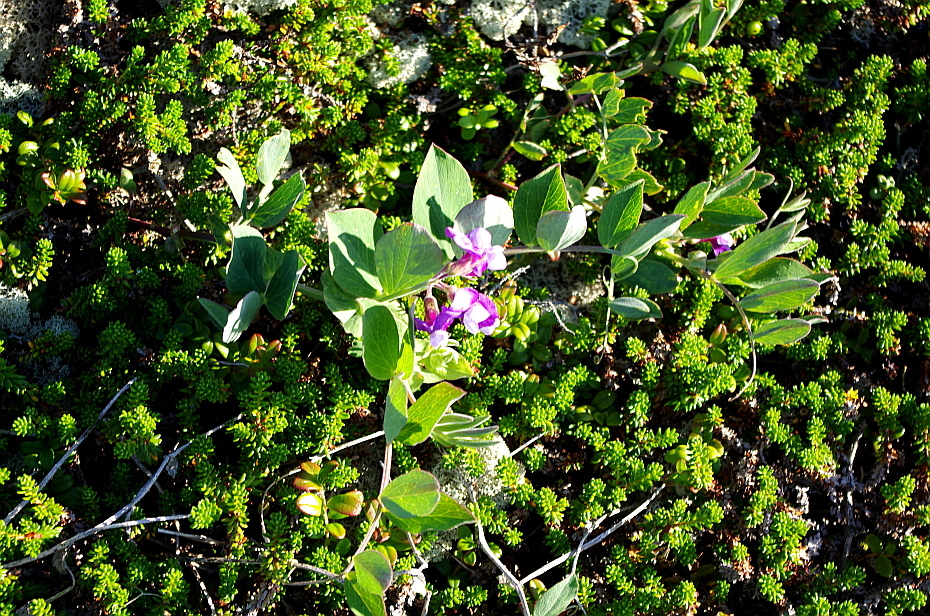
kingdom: Plantae
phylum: Tracheophyta
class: Magnoliopsida
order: Fabales
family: Fabaceae
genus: Lathyrus
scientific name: Lathyrus japonicus
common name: Sea pea
